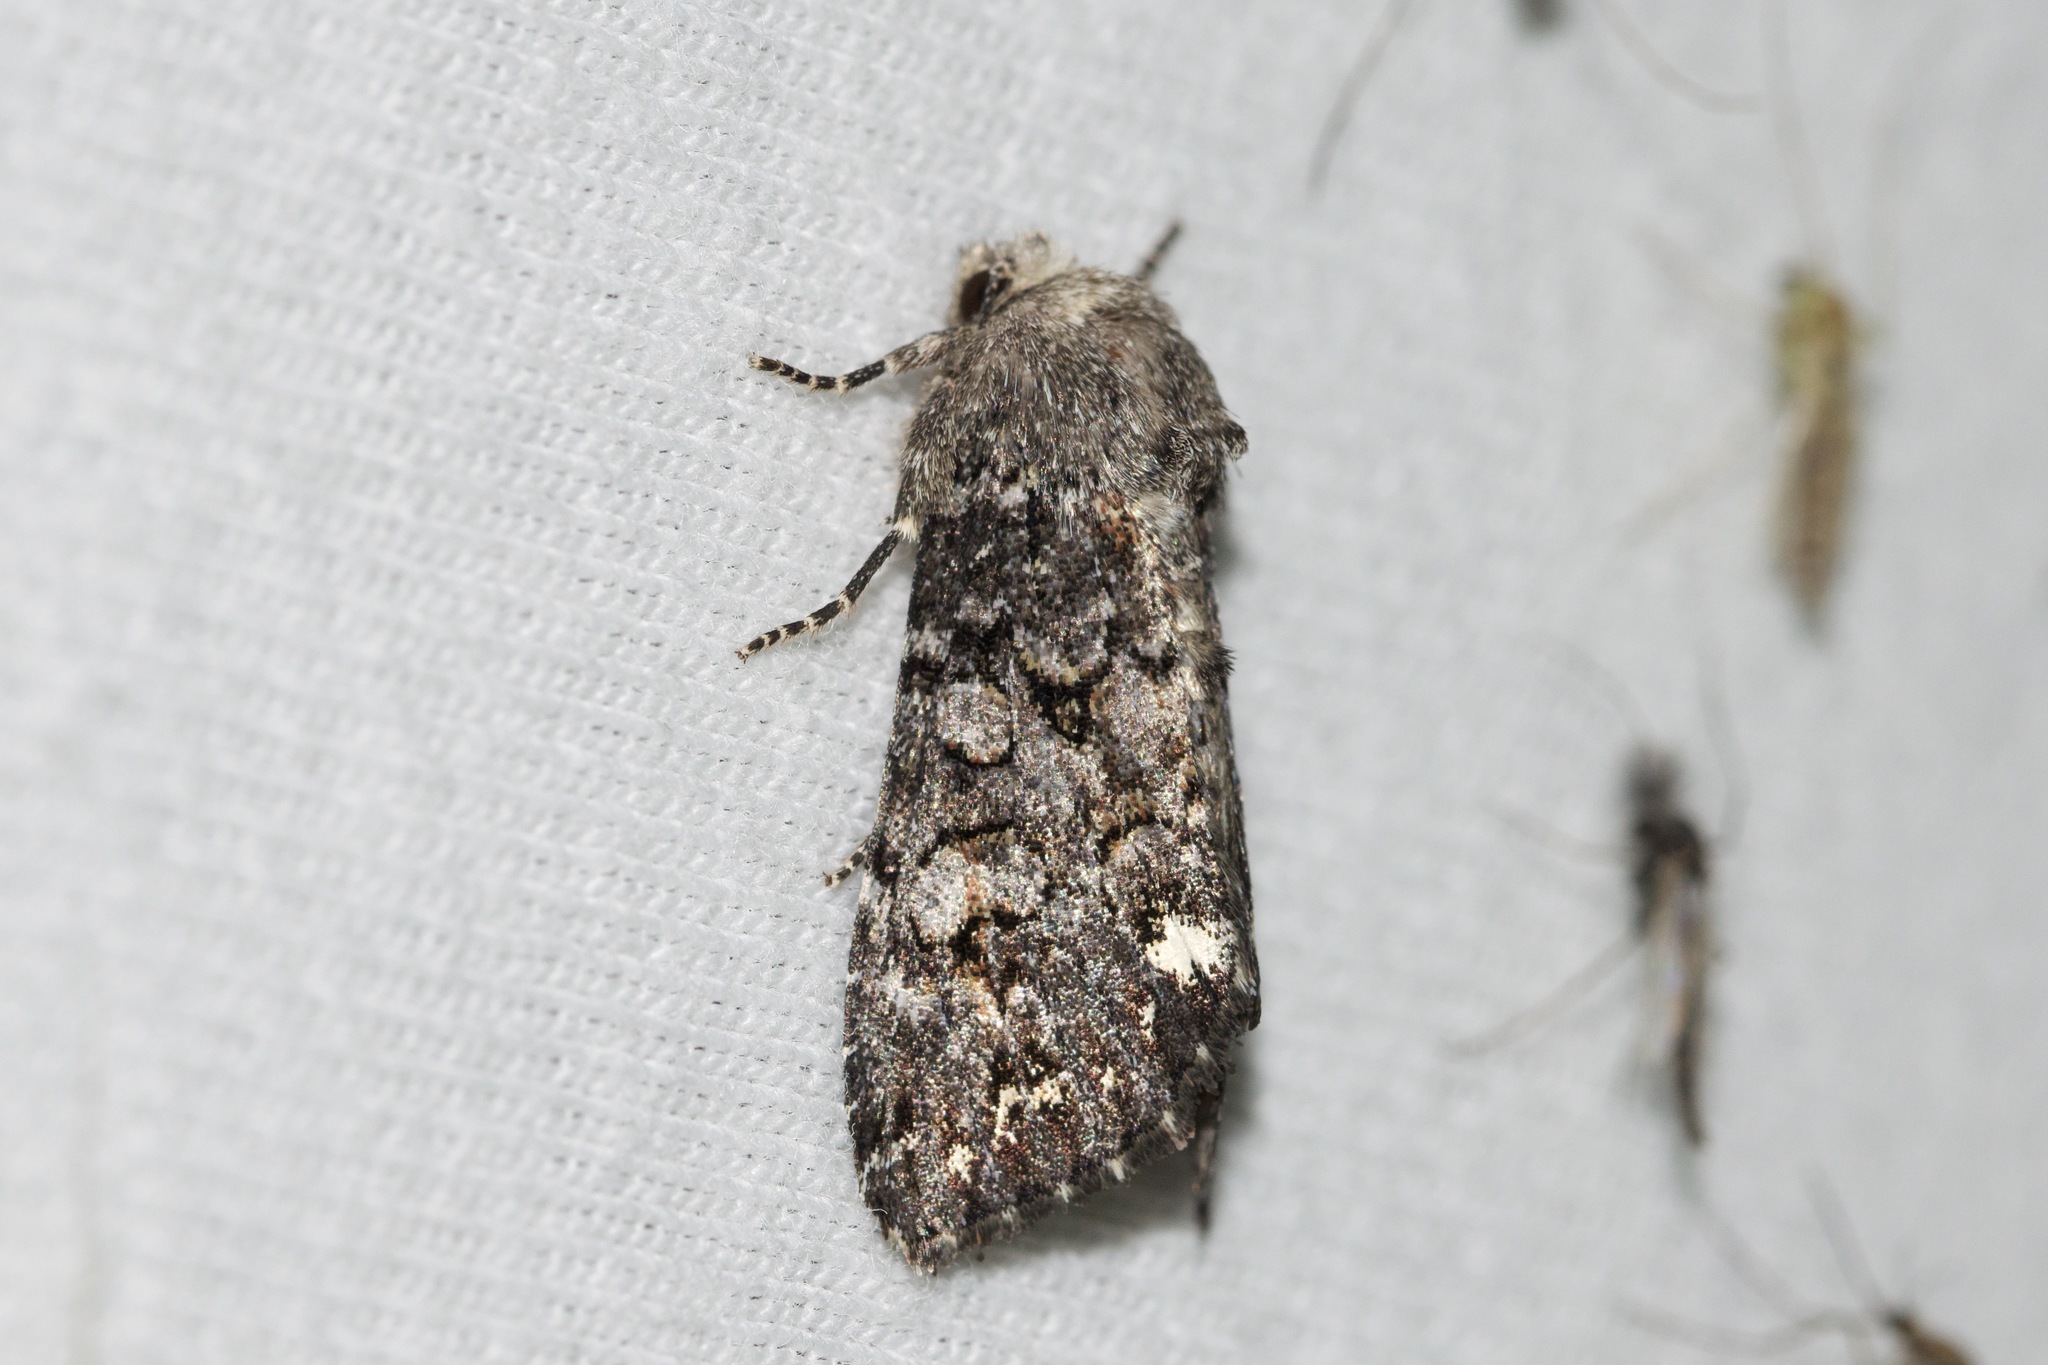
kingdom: Animalia
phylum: Arthropoda
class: Insecta
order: Lepidoptera
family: Noctuidae
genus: Melanchra
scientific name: Melanchra pulverulenta
